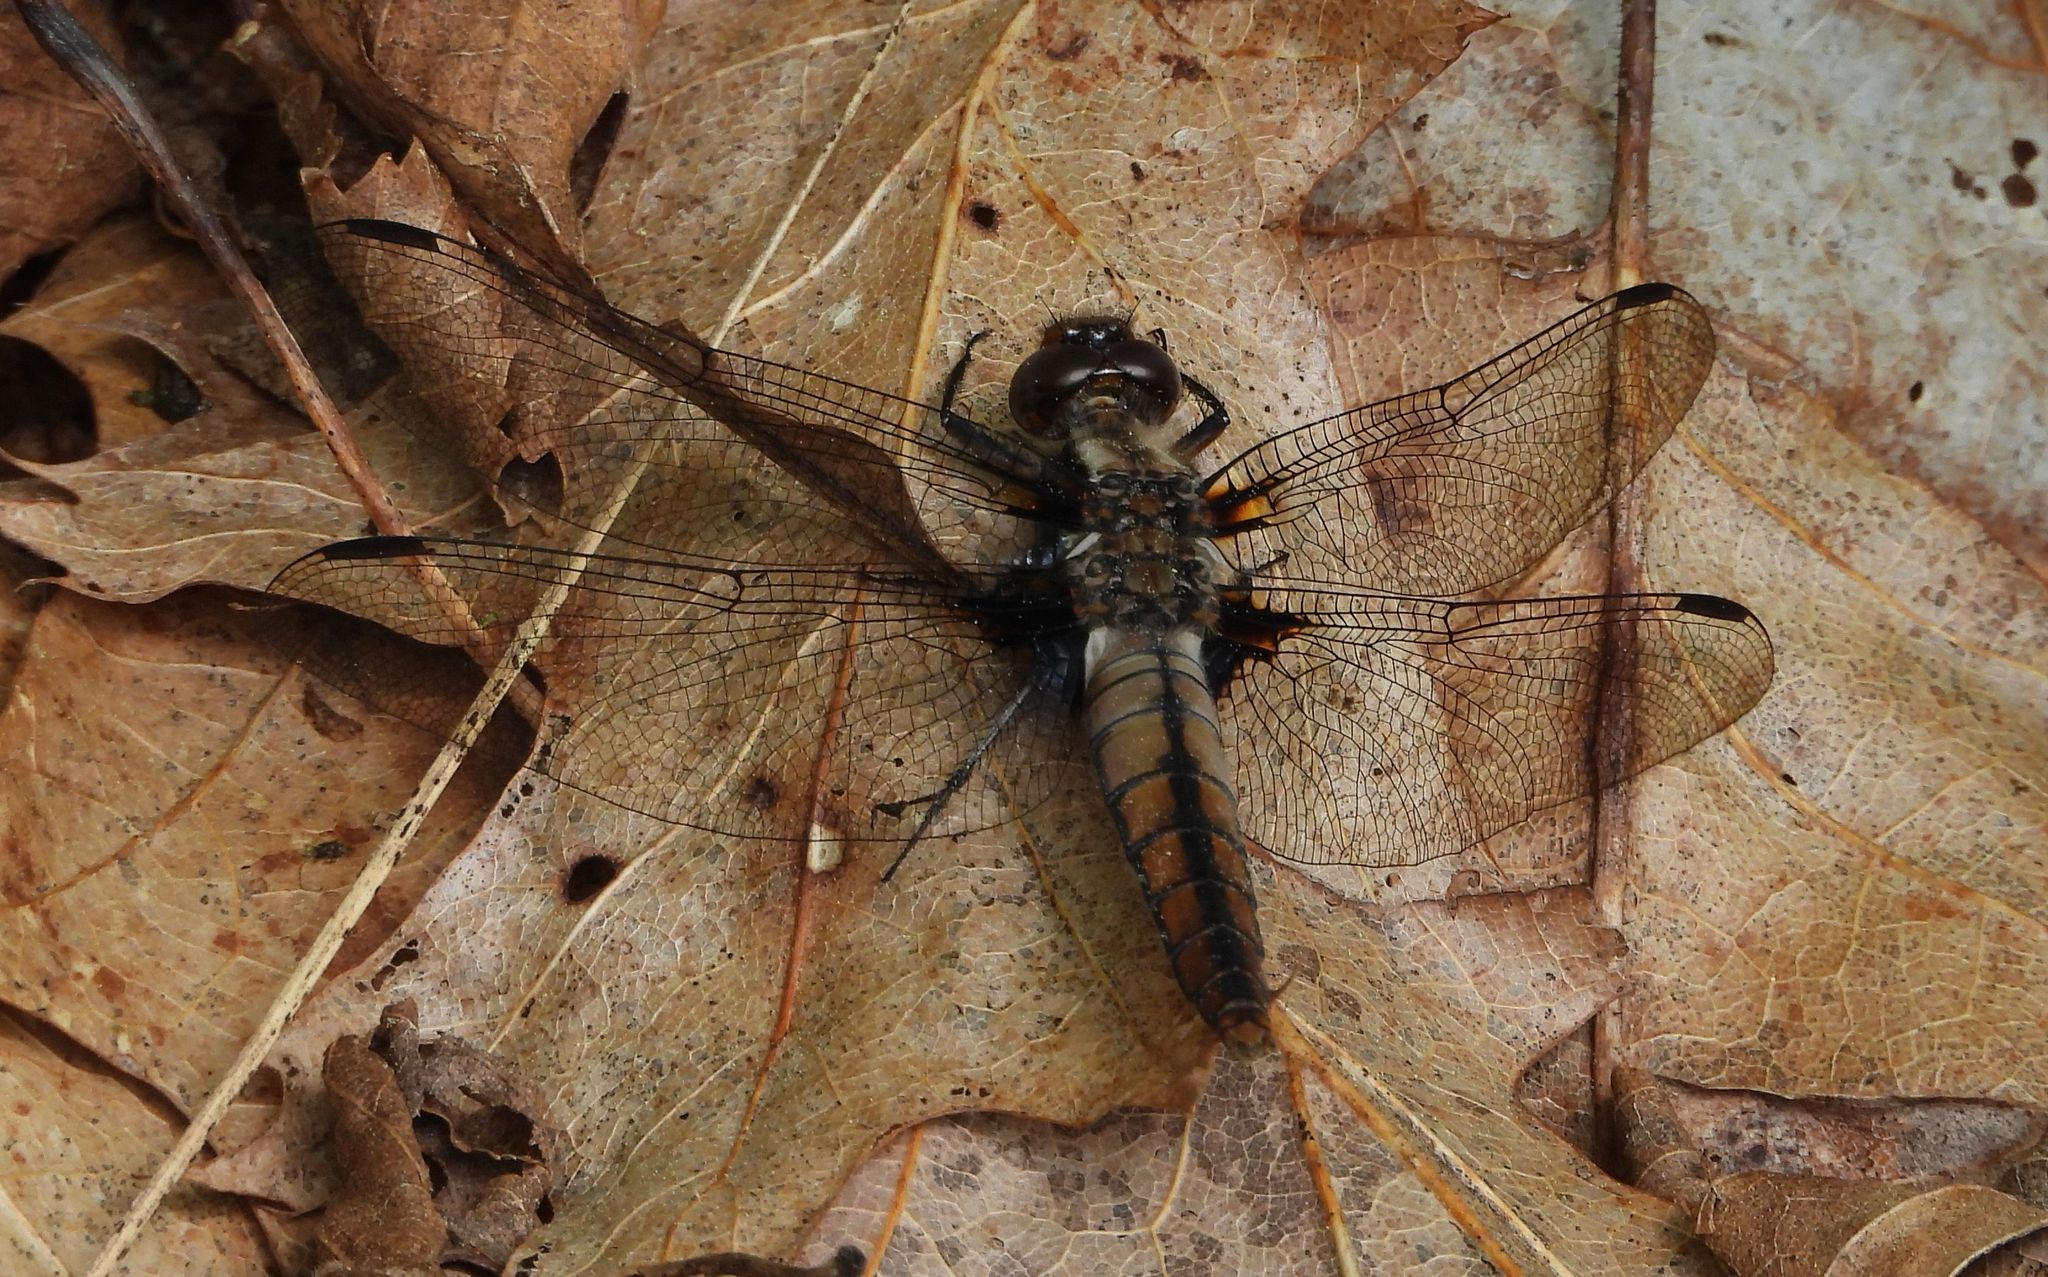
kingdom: Animalia
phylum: Arthropoda
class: Insecta
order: Odonata
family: Libellulidae
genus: Ladona
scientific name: Ladona julia
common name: Chalk-fronted corporal
